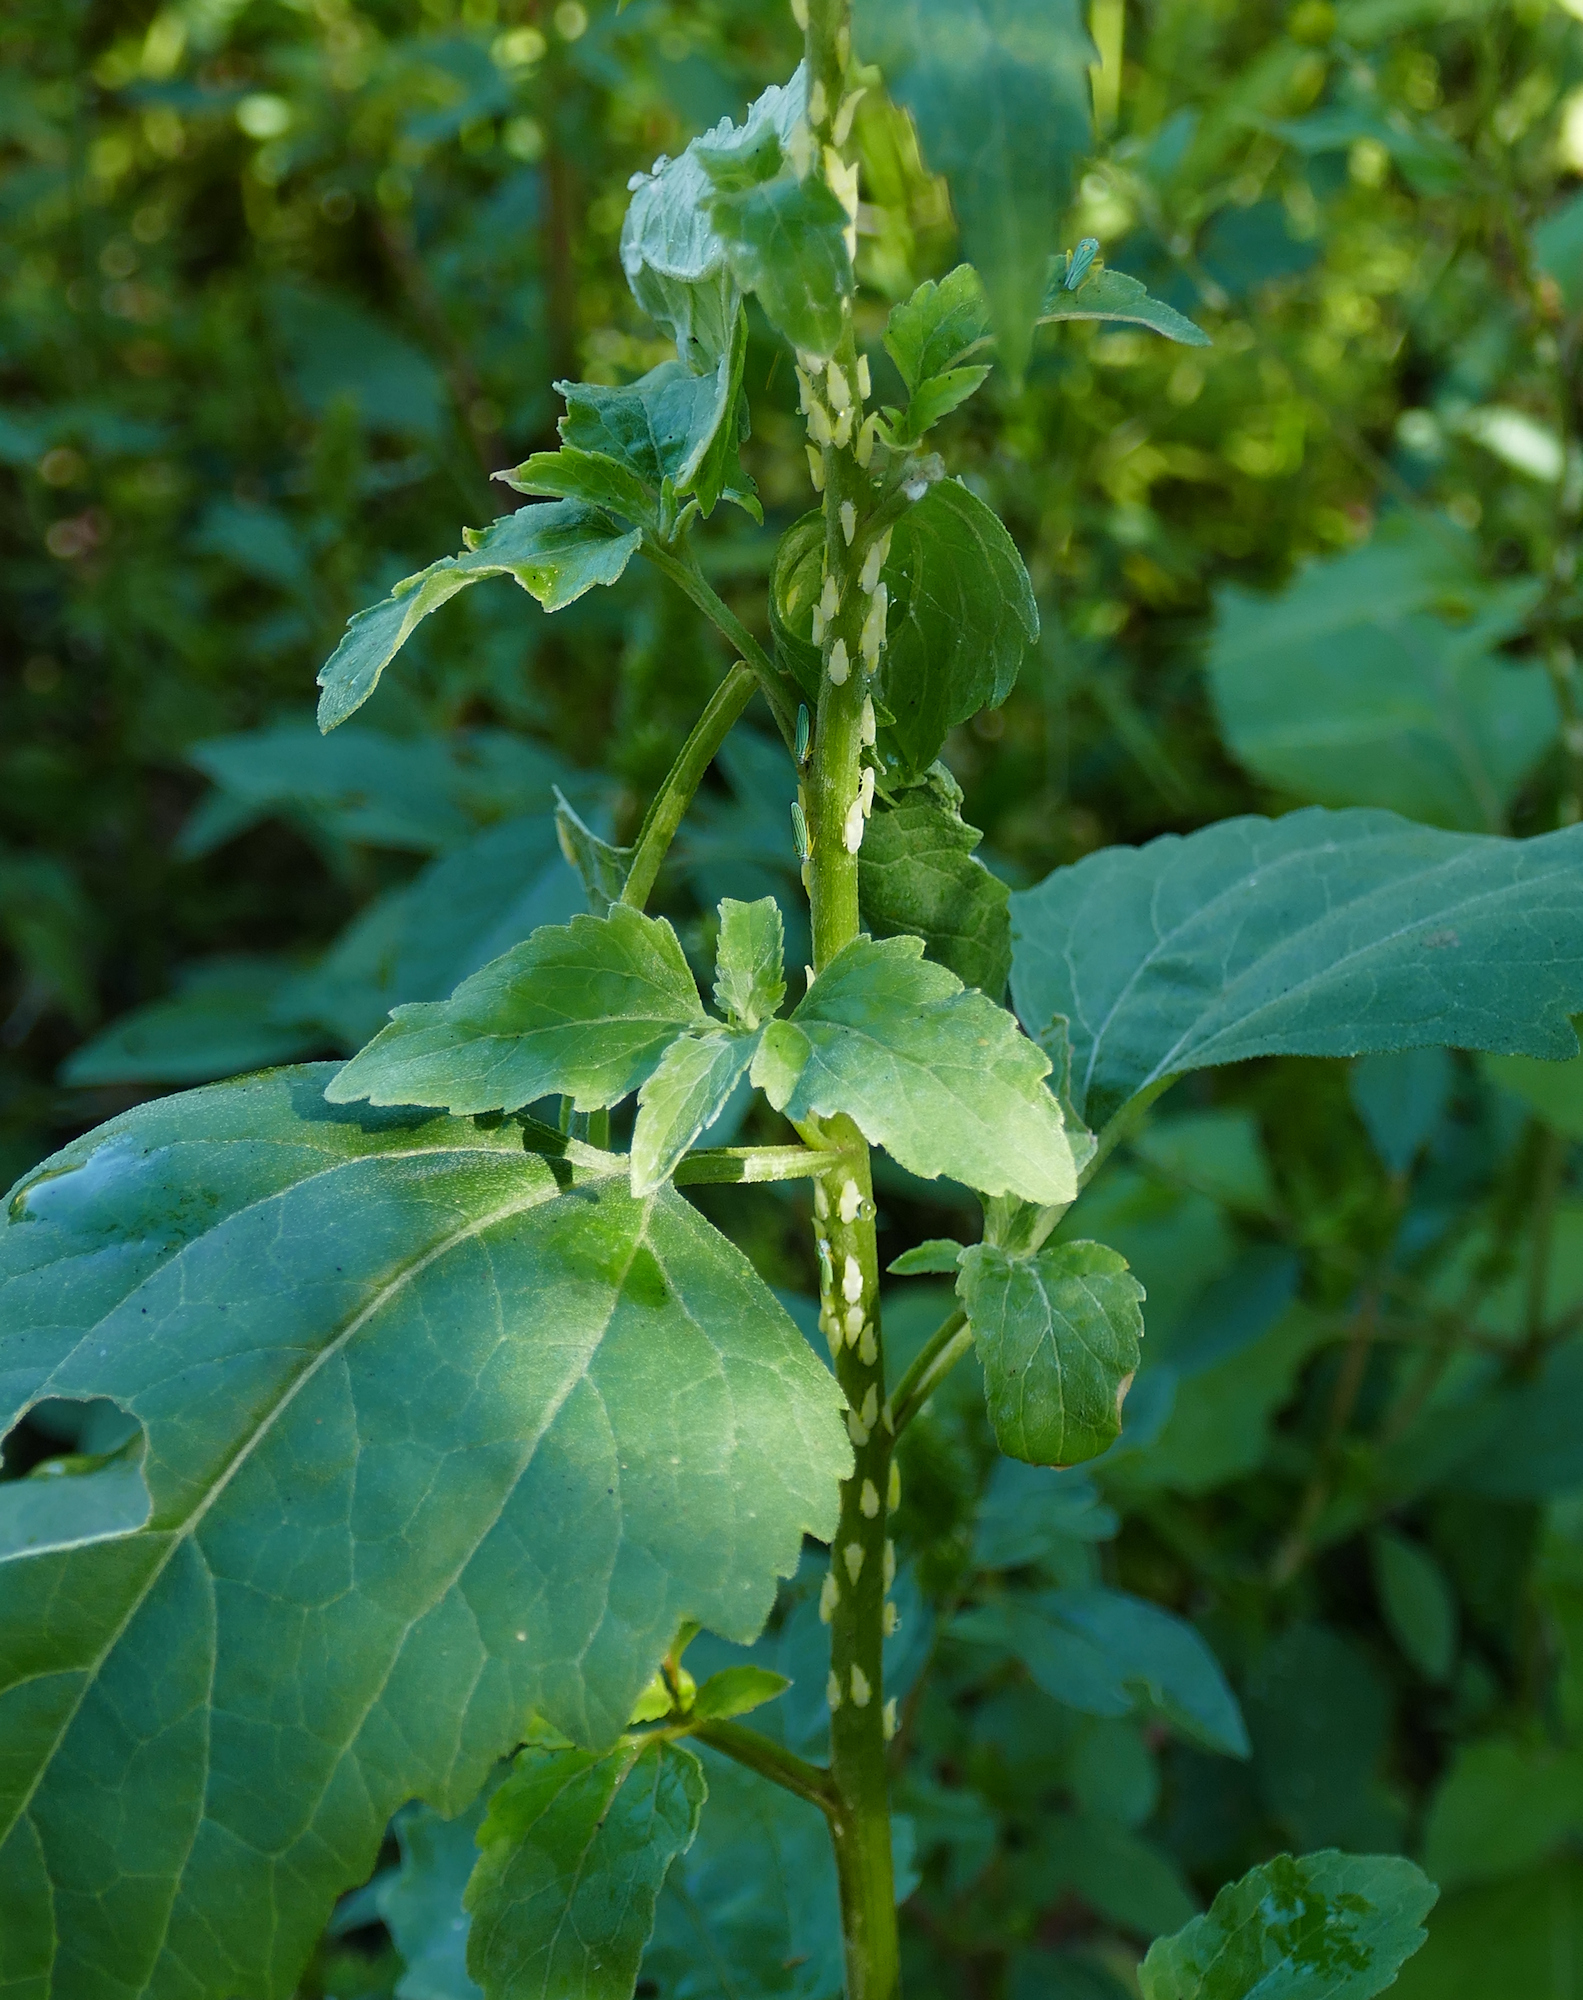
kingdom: Animalia
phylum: Arthropoda
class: Insecta
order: Hemiptera
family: Cicadellidae
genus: Graphocephala
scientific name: Graphocephala atropunctata
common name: Blue-green sharpshooter
